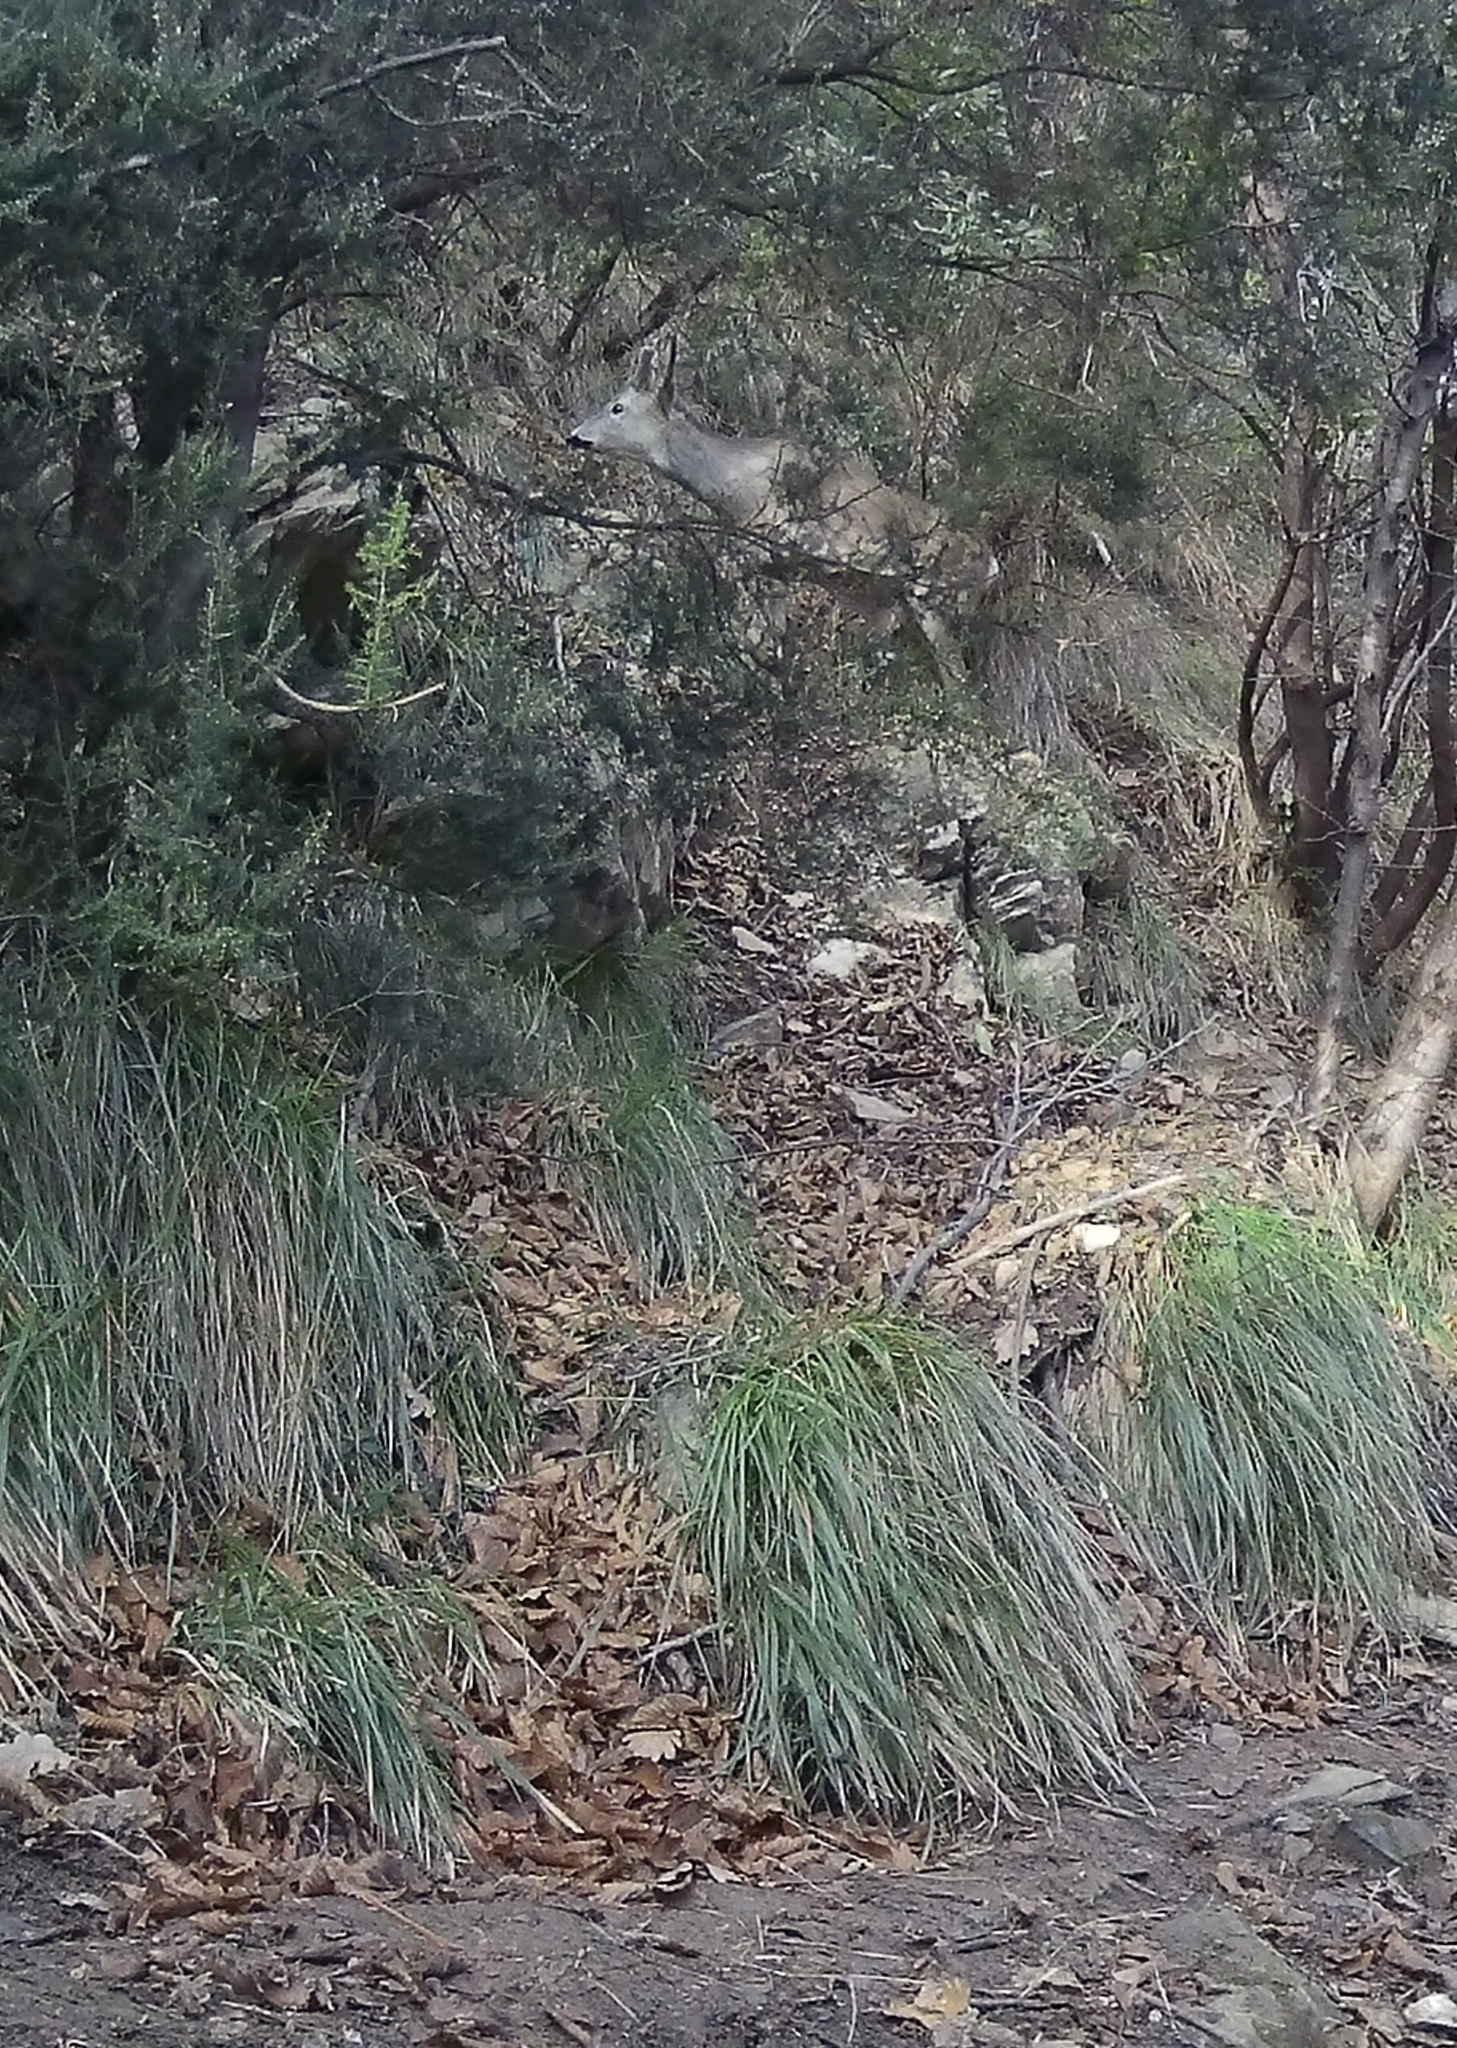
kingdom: Animalia
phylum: Chordata
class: Mammalia
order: Artiodactyla
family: Cervidae
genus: Capreolus
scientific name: Capreolus capreolus
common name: Western roe deer
